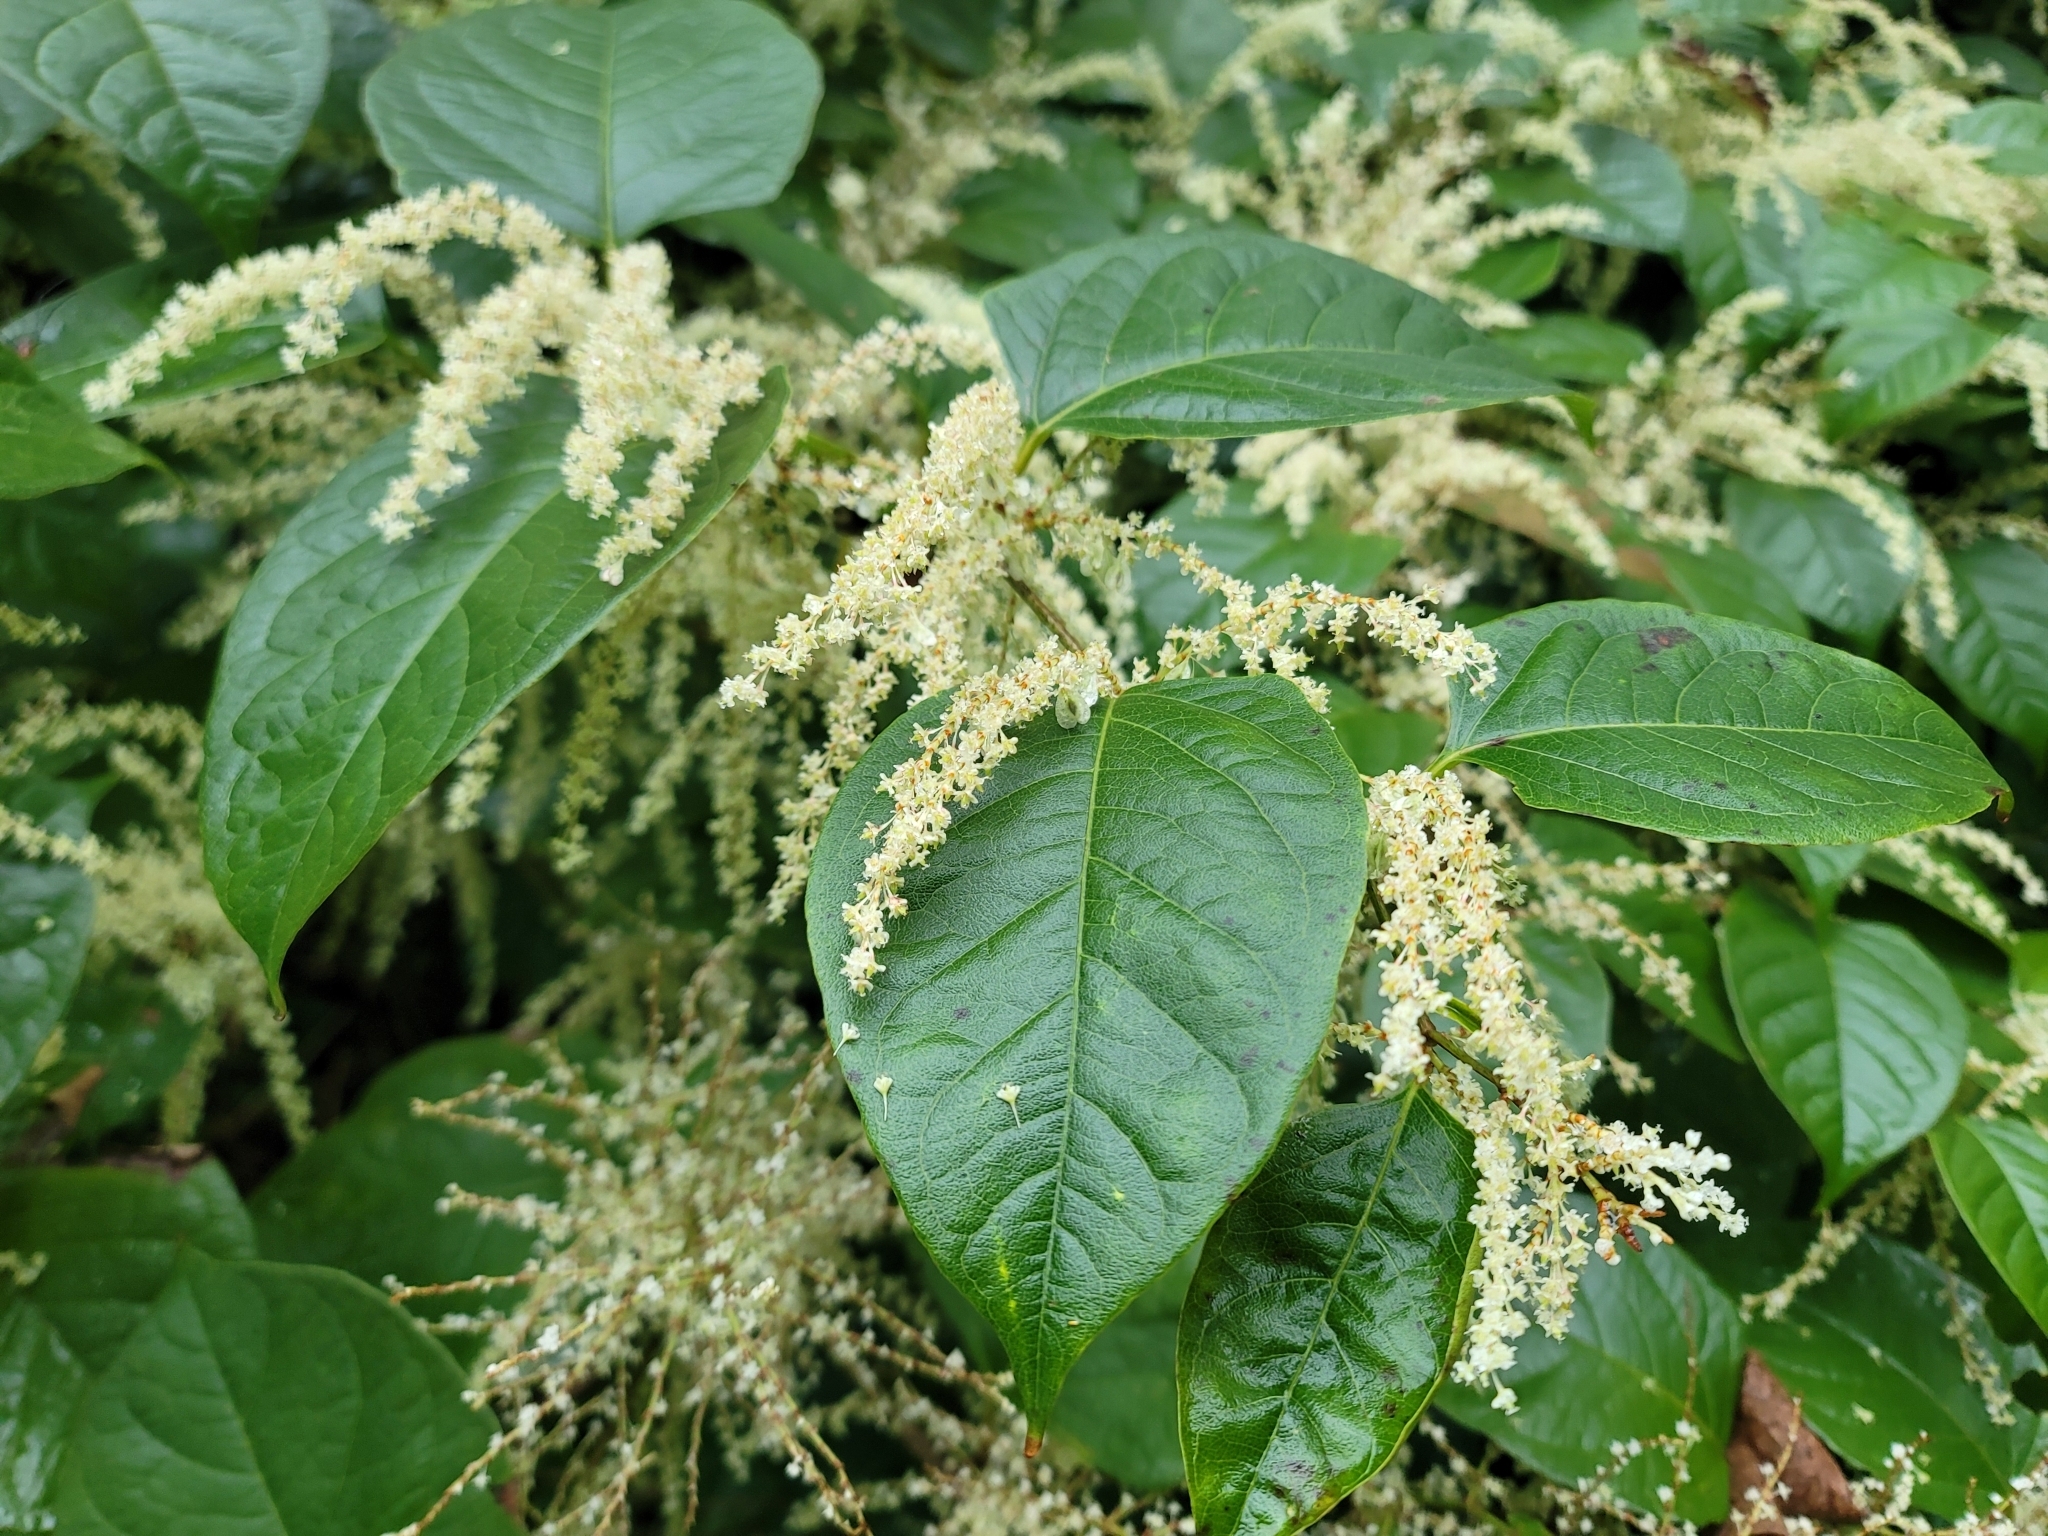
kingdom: Plantae
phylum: Tracheophyta
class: Magnoliopsida
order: Caryophyllales
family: Polygonaceae
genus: Reynoutria
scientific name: Reynoutria japonica
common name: Japanese knotweed
